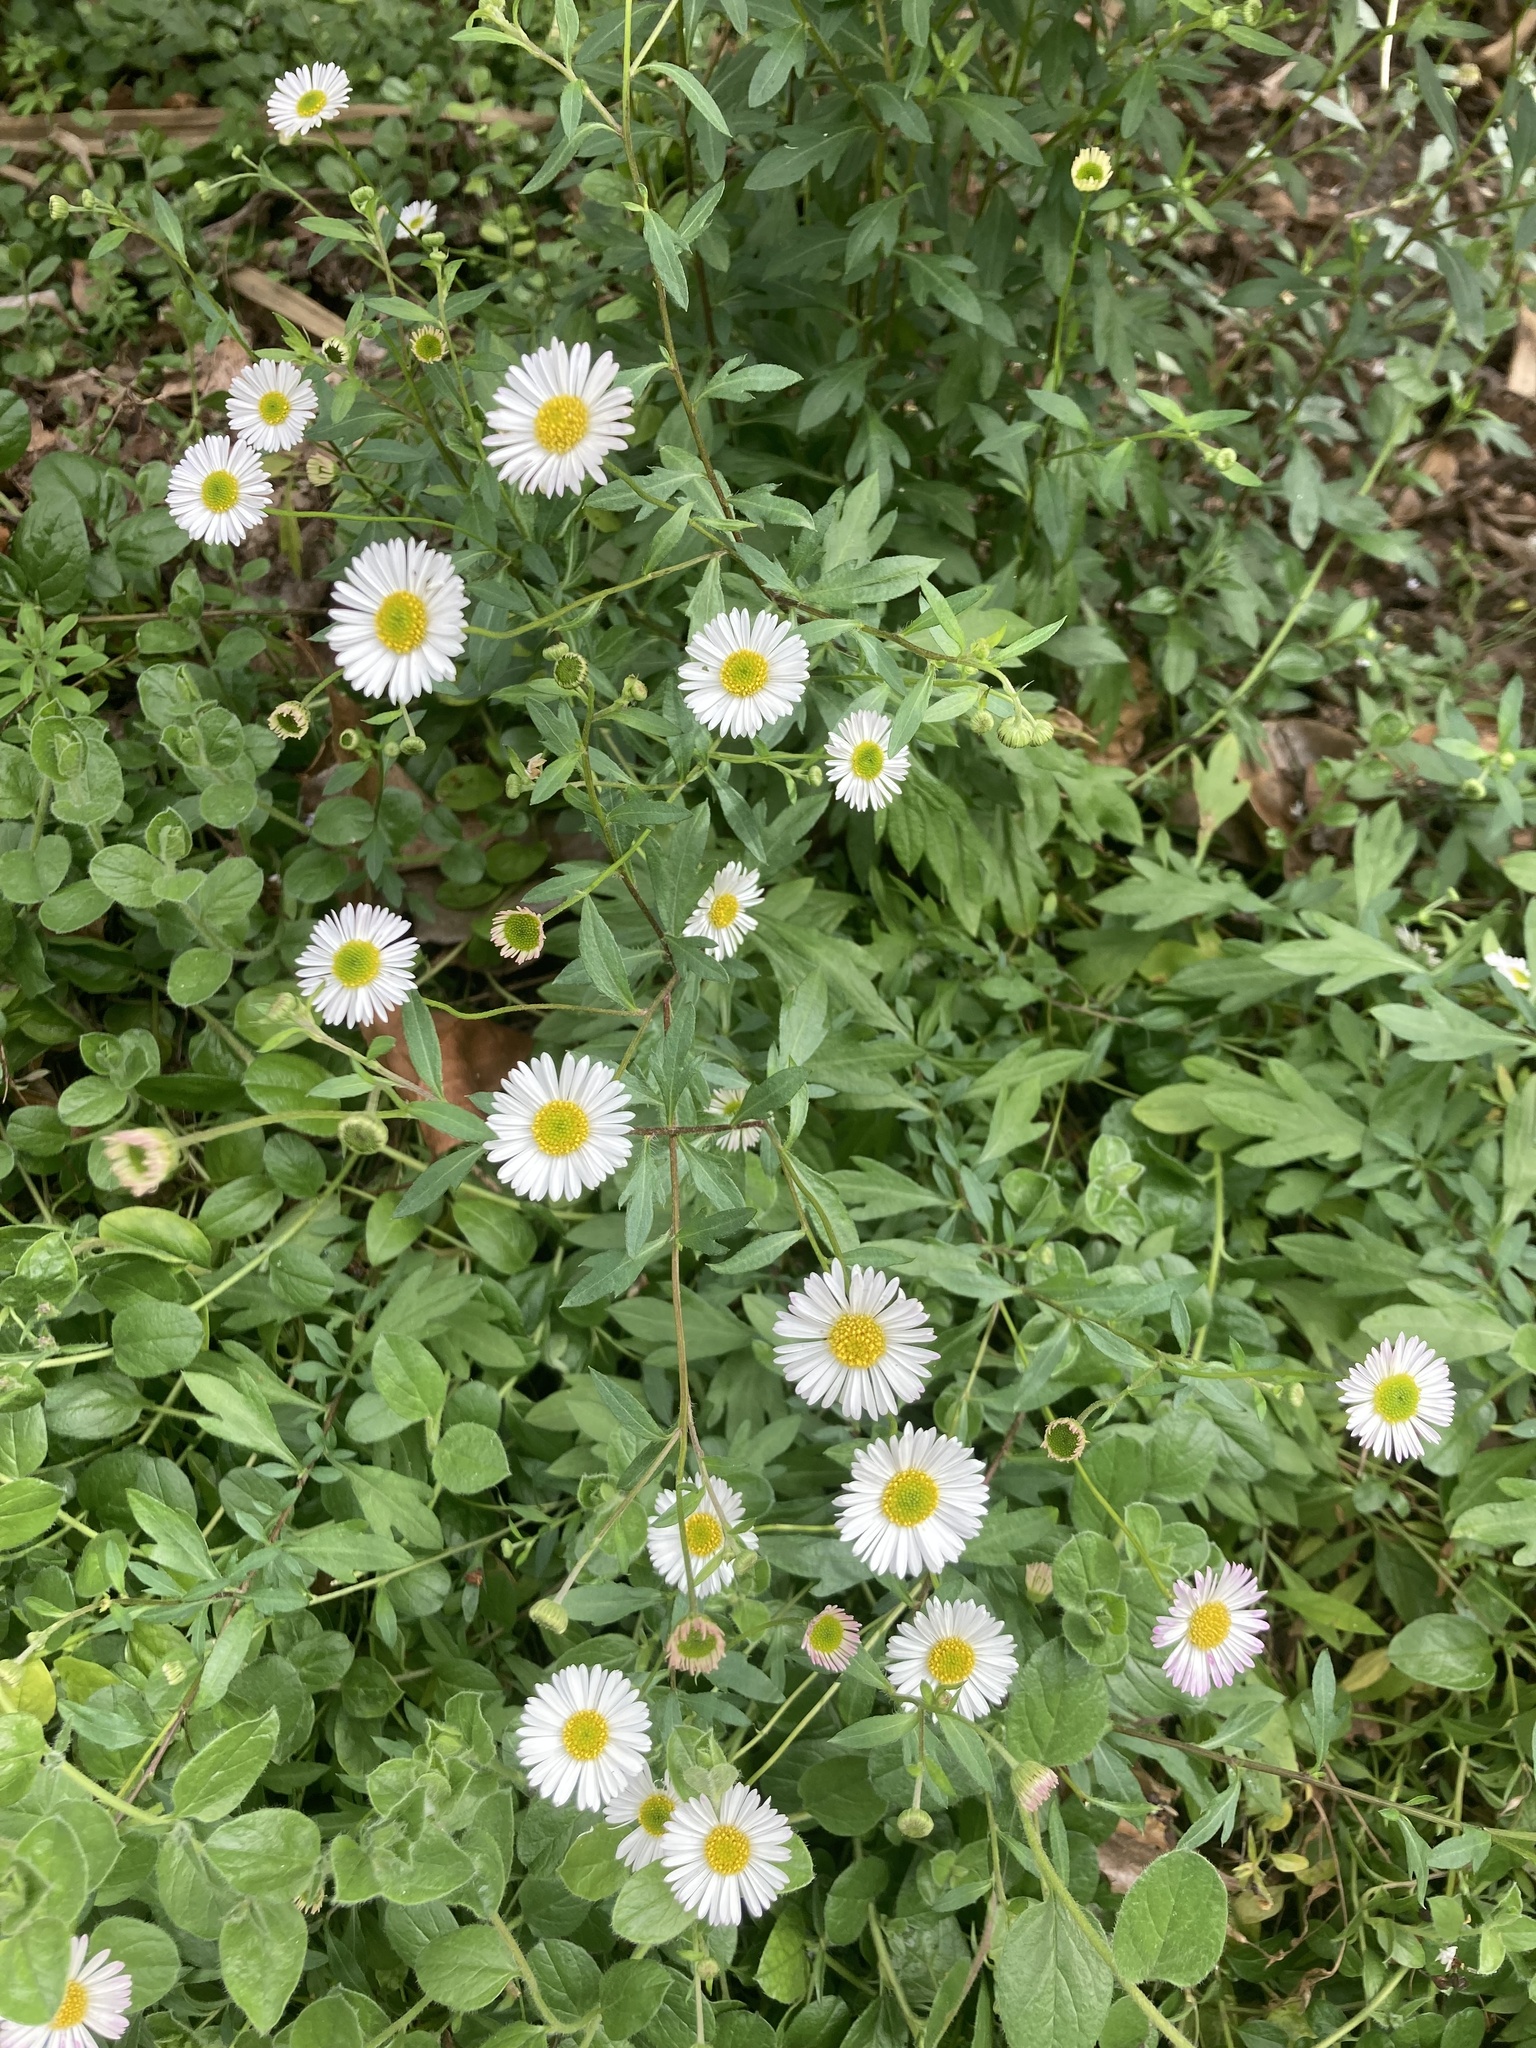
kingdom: Plantae
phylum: Tracheophyta
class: Magnoliopsida
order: Asterales
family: Asteraceae
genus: Erigeron
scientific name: Erigeron karvinskianus
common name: Mexican fleabane
